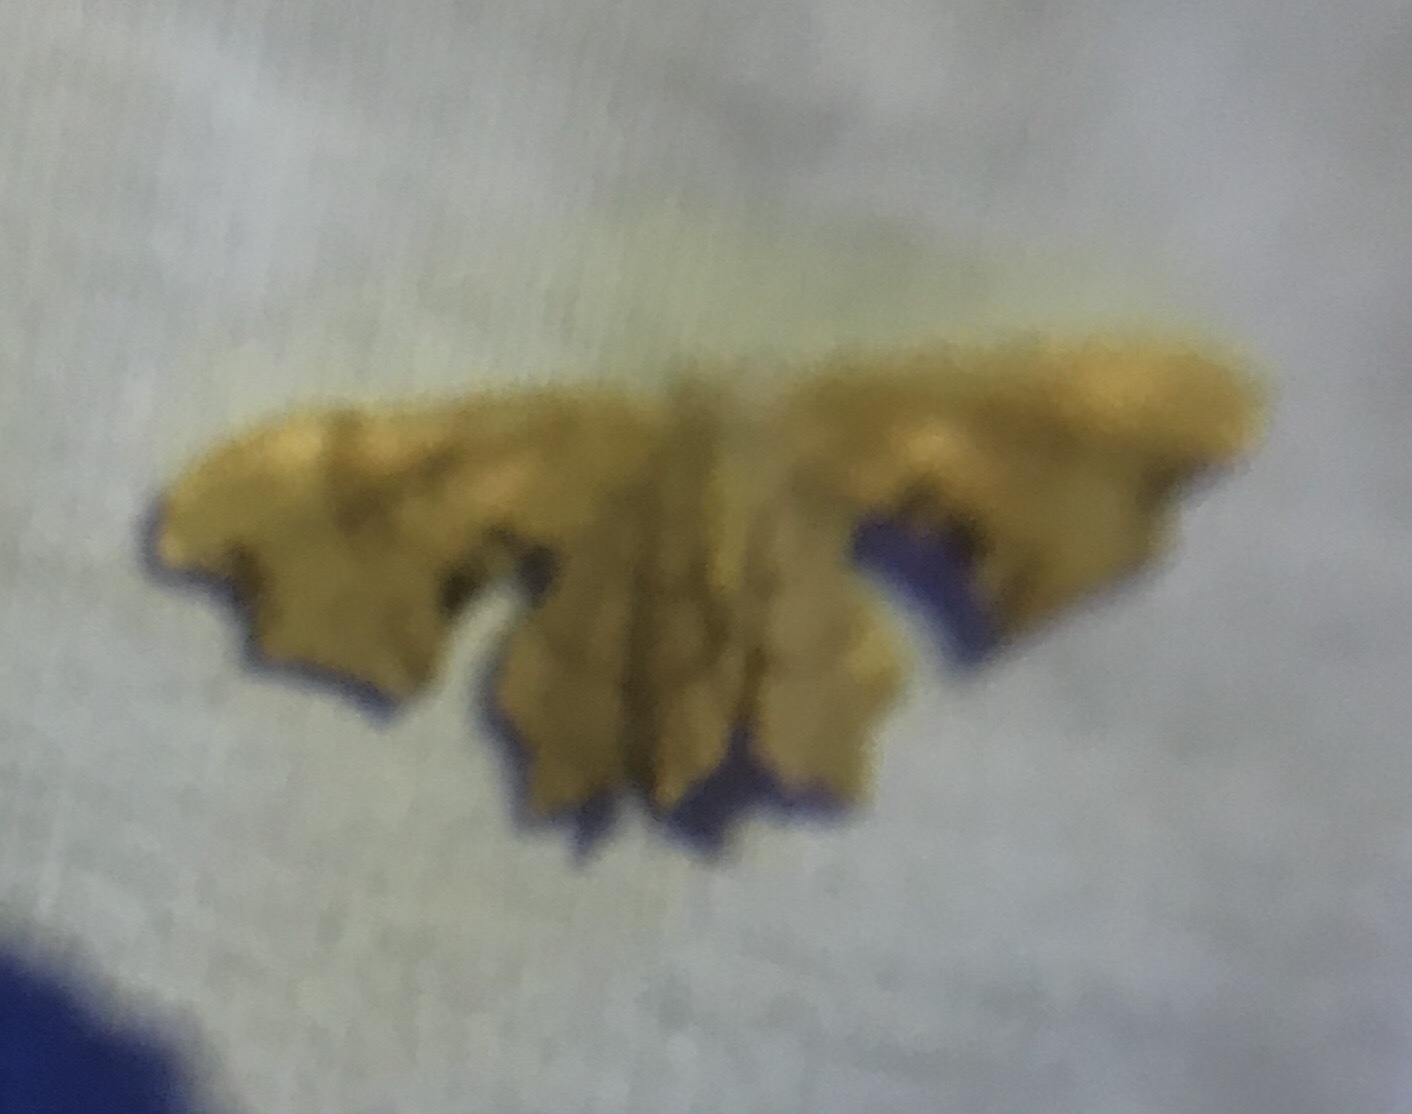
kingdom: Animalia
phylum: Arthropoda
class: Insecta
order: Lepidoptera
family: Uraniidae
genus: Epiplema
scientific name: Epiplema Calledapteryx dryopterata
